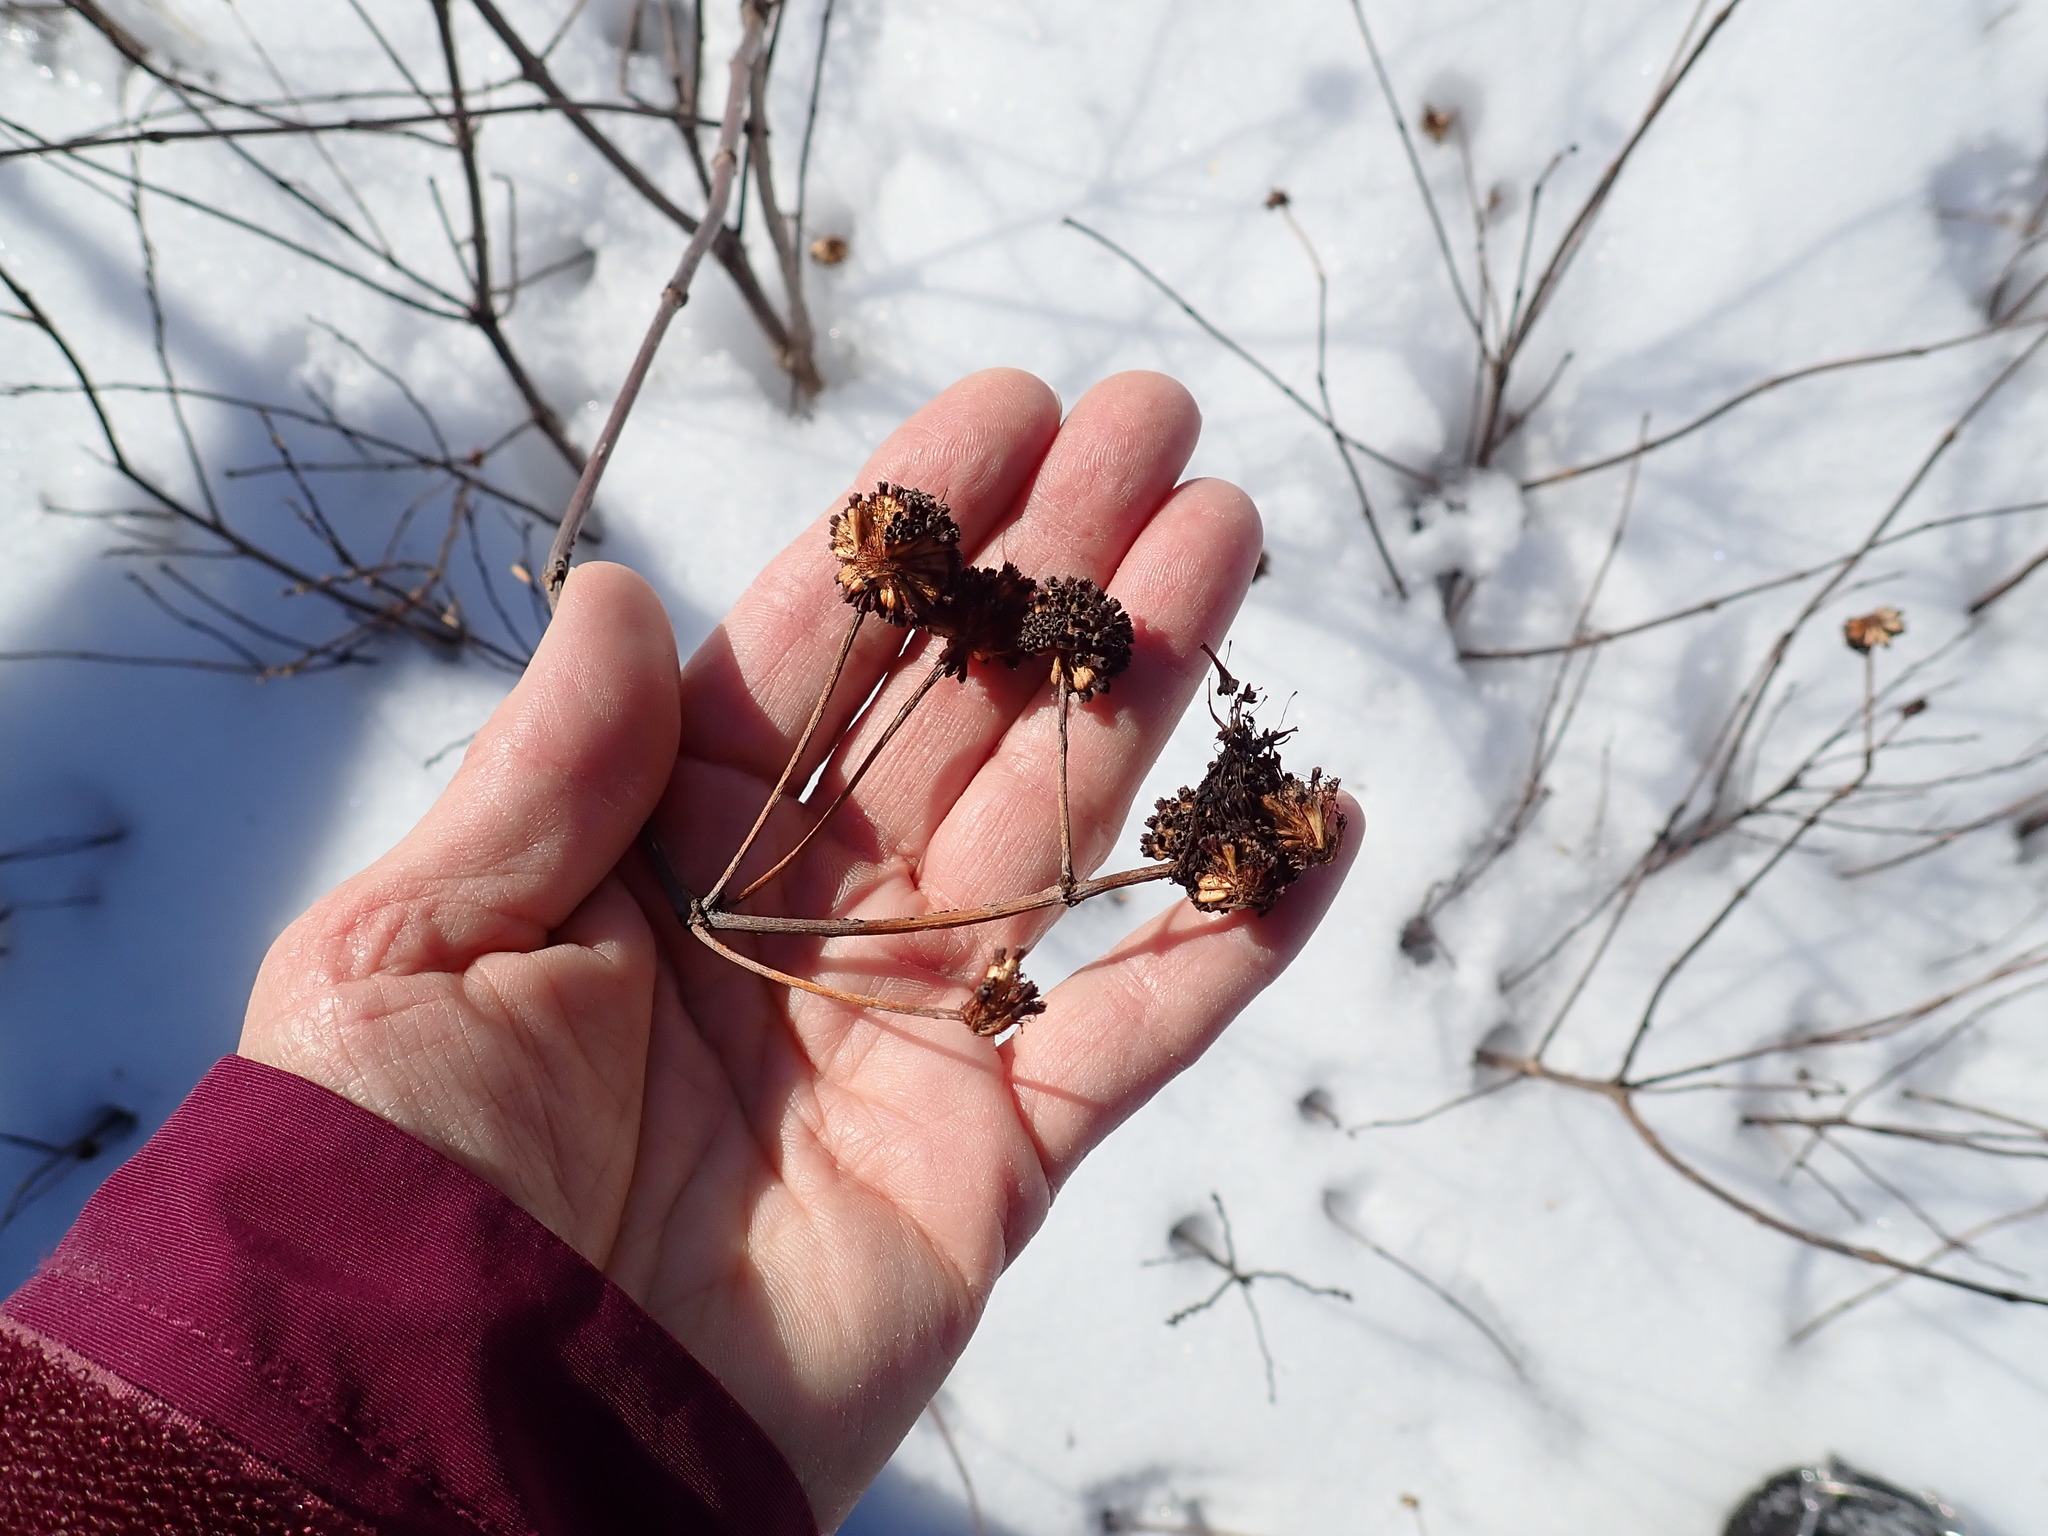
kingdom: Plantae
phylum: Tracheophyta
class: Magnoliopsida
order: Gentianales
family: Rubiaceae
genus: Cephalanthus
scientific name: Cephalanthus occidentalis
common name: Button-willow
